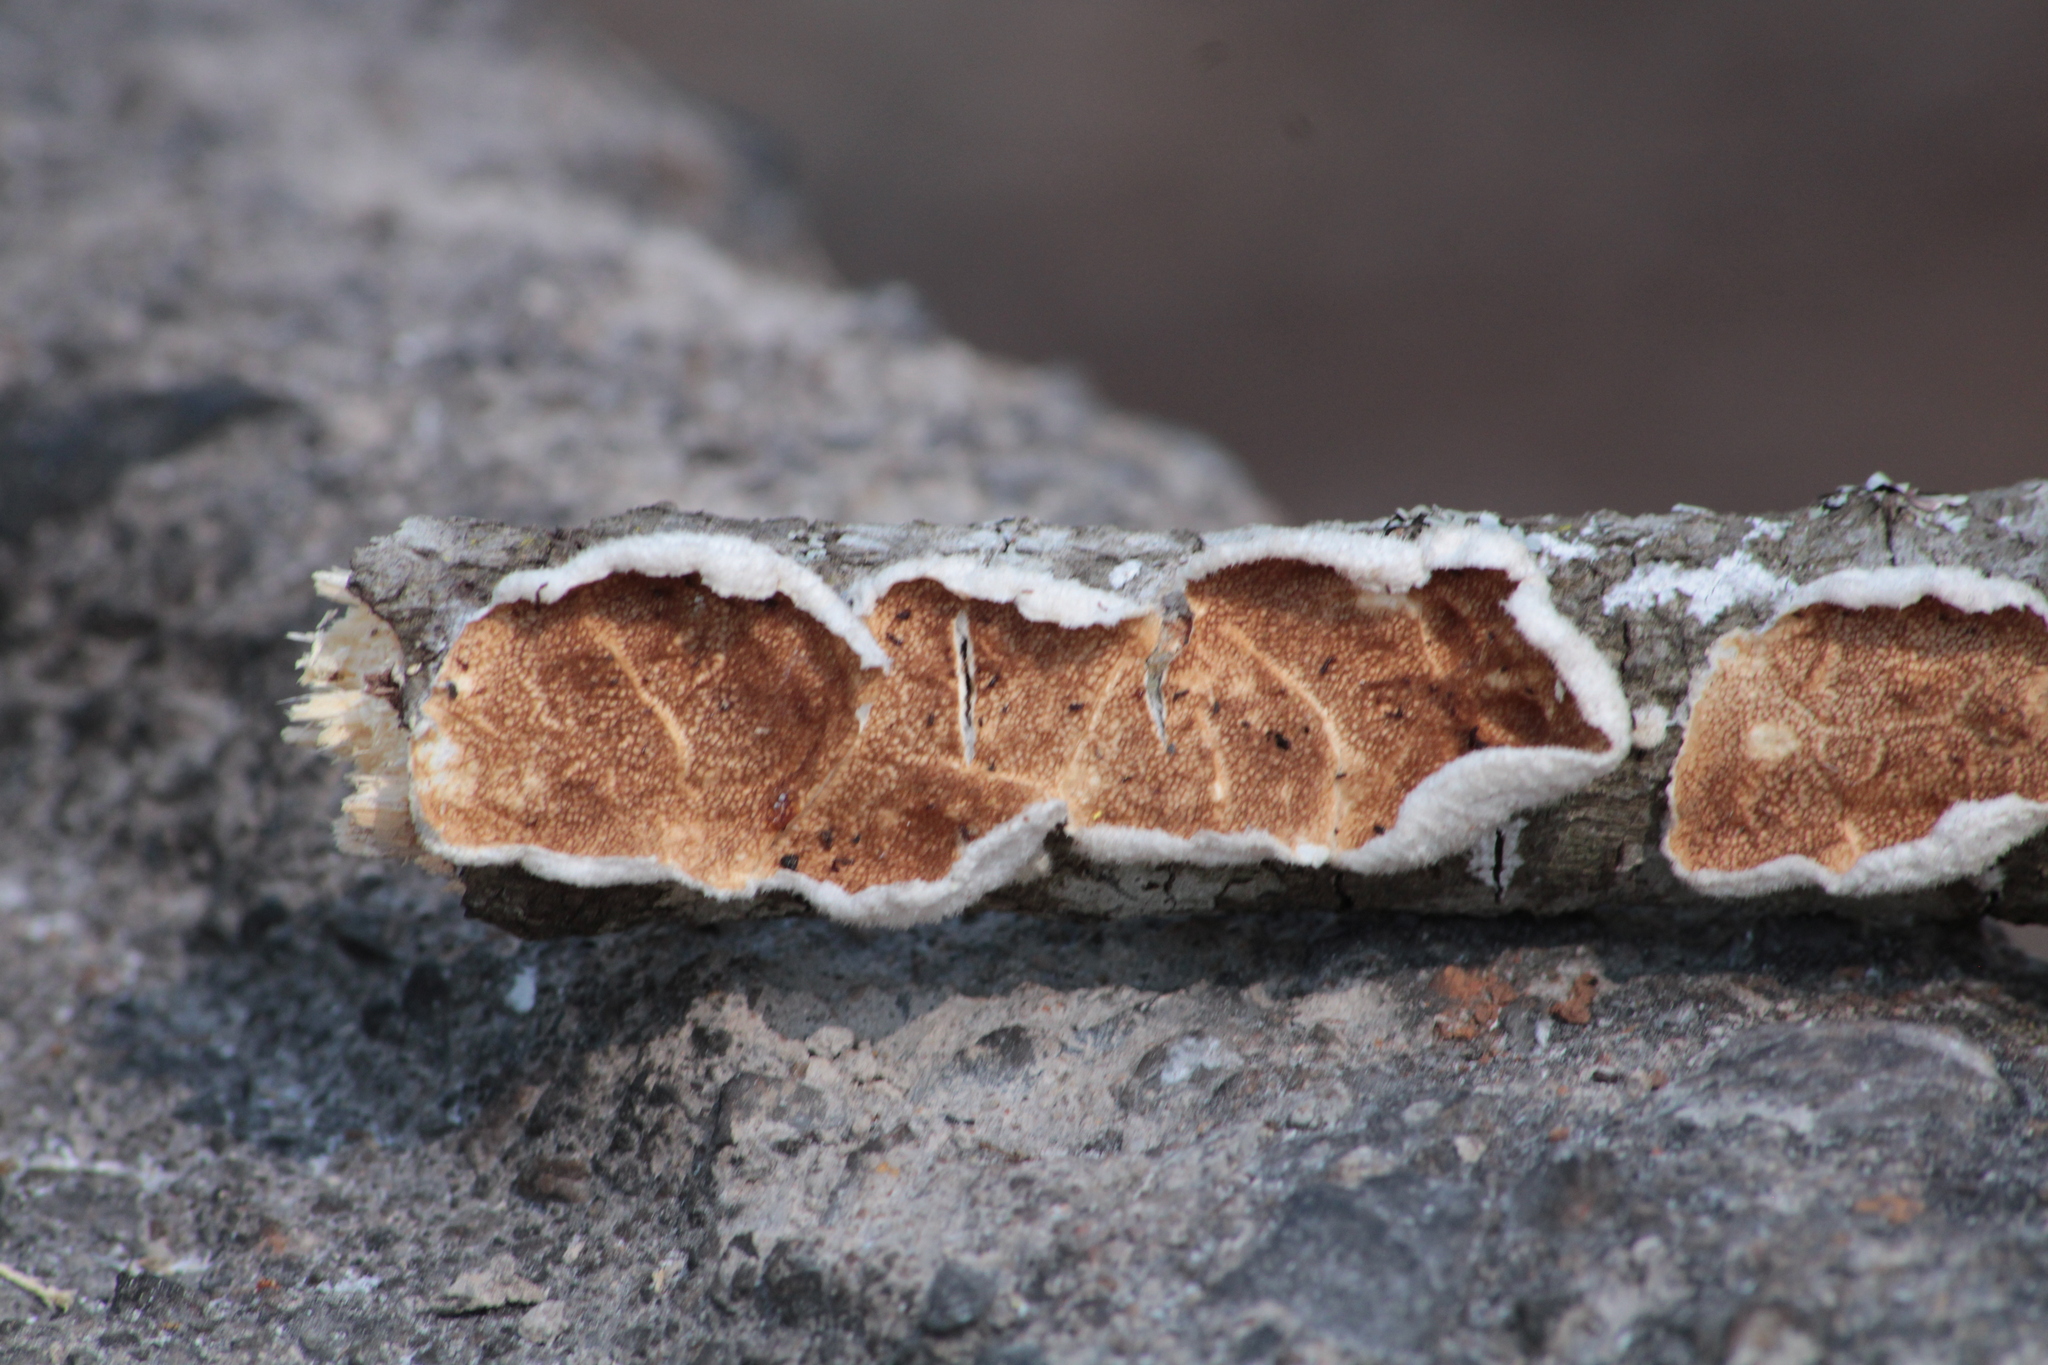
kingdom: Fungi
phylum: Basidiomycota
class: Agaricomycetes
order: Polyporales
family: Steccherinaceae
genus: Steccherinum
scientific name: Steccherinum ochraceum
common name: Ochre spreading tooth
